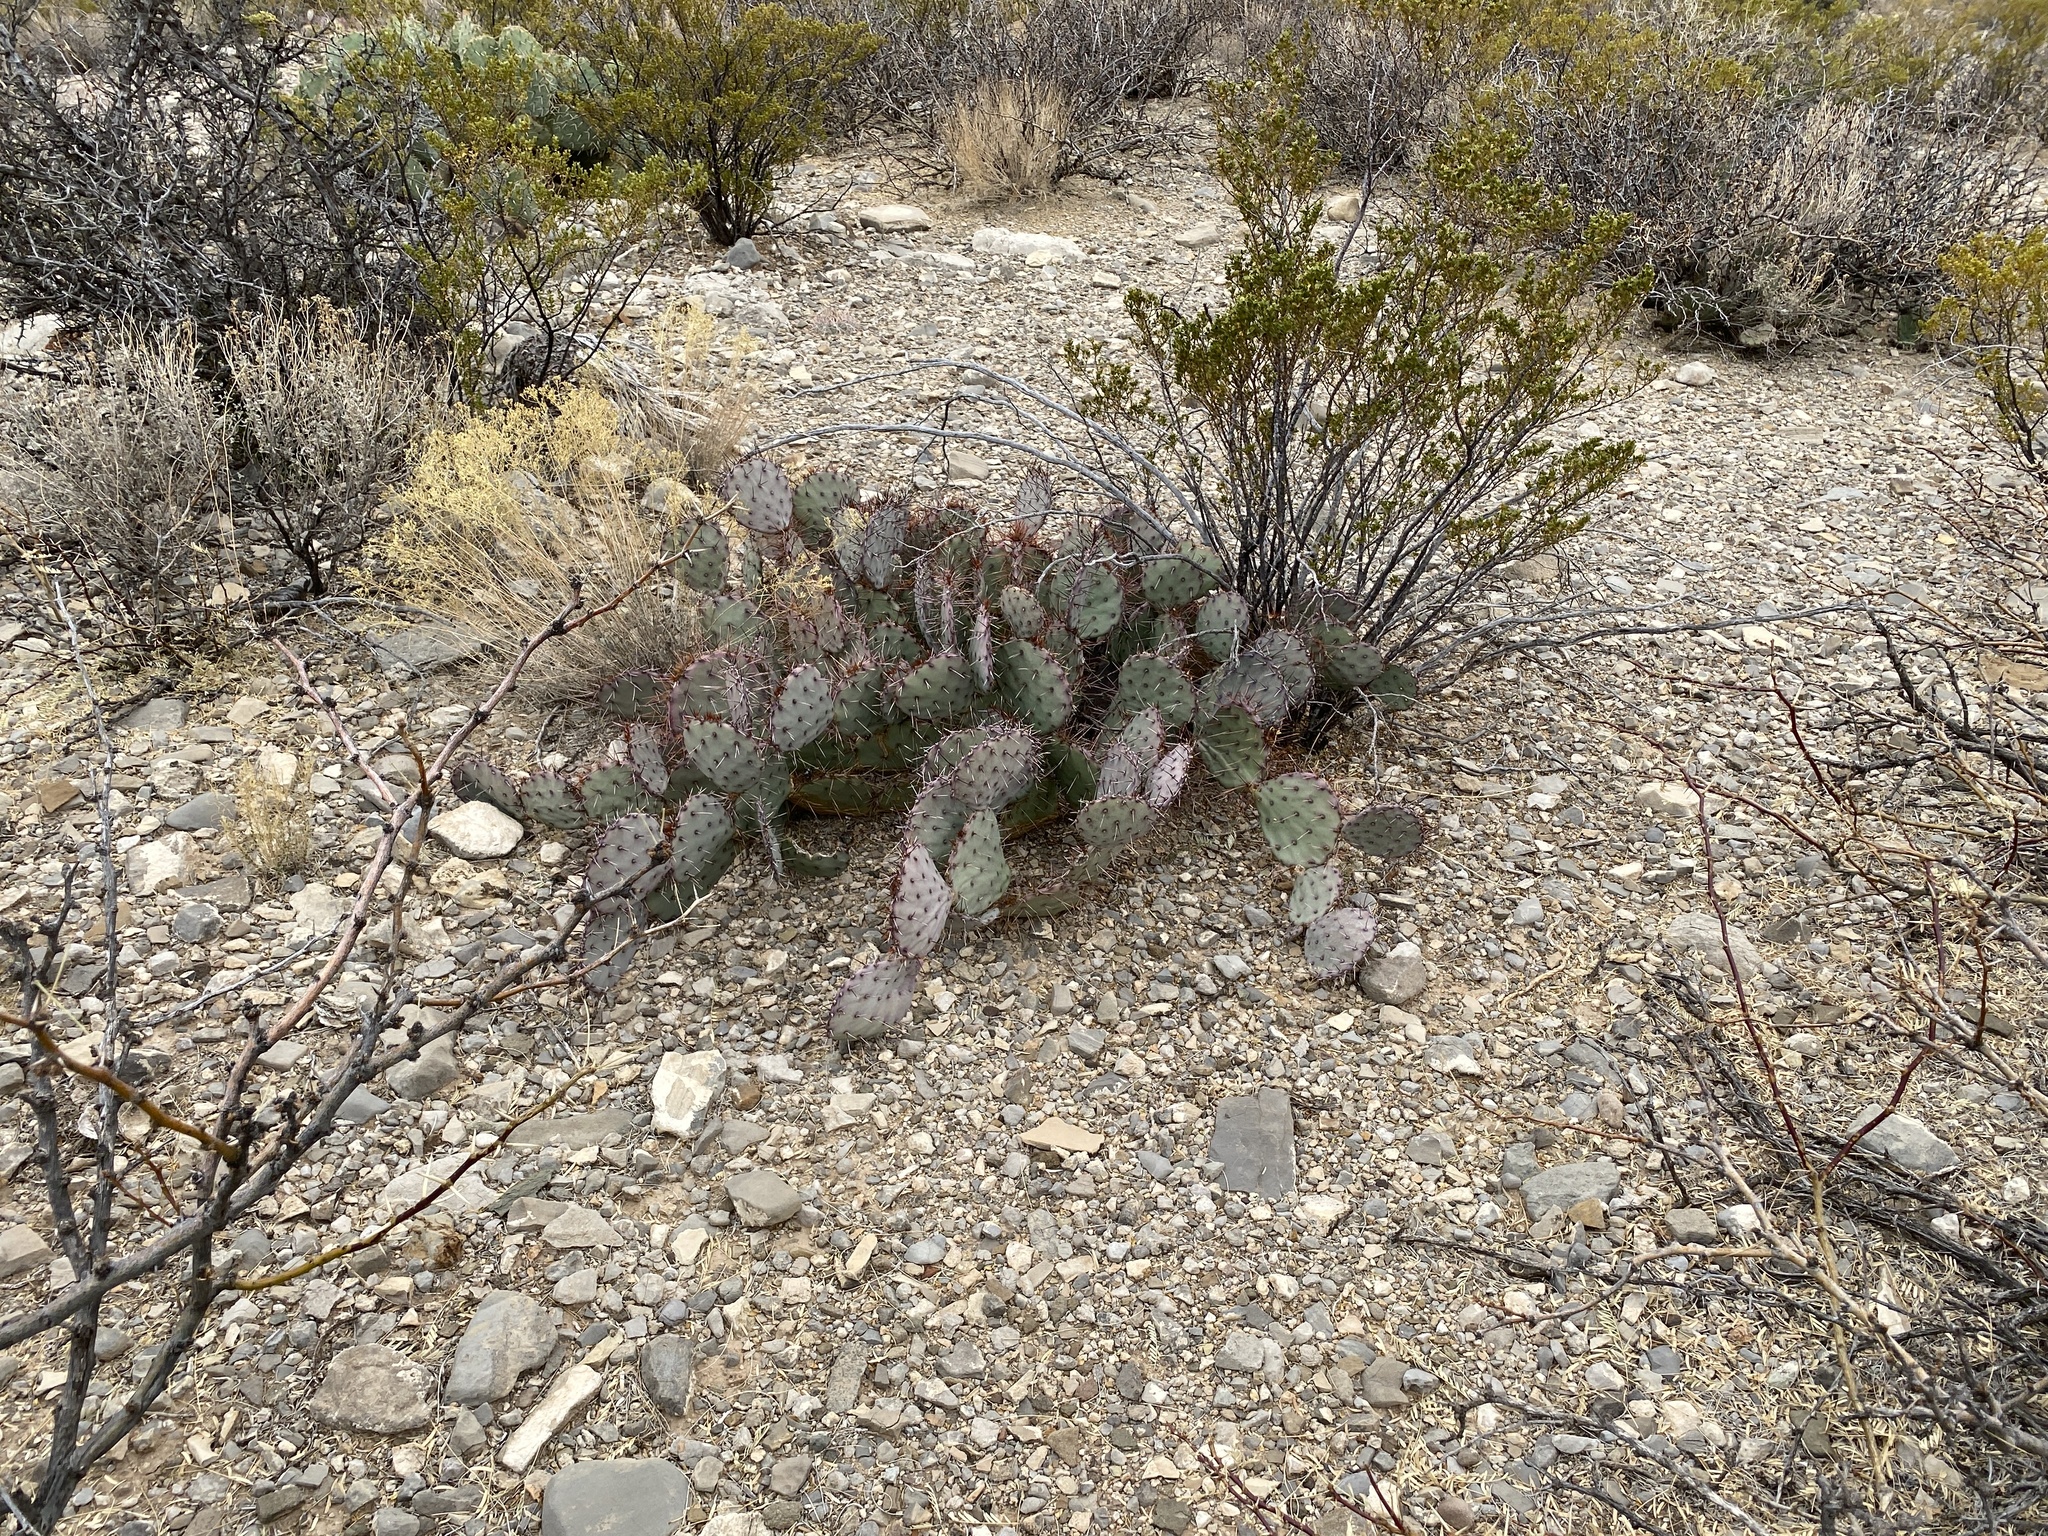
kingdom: Plantae
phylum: Tracheophyta
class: Magnoliopsida
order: Caryophyllales
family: Cactaceae
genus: Opuntia
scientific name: Opuntia macrocentra
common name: Purple prickly-pear
